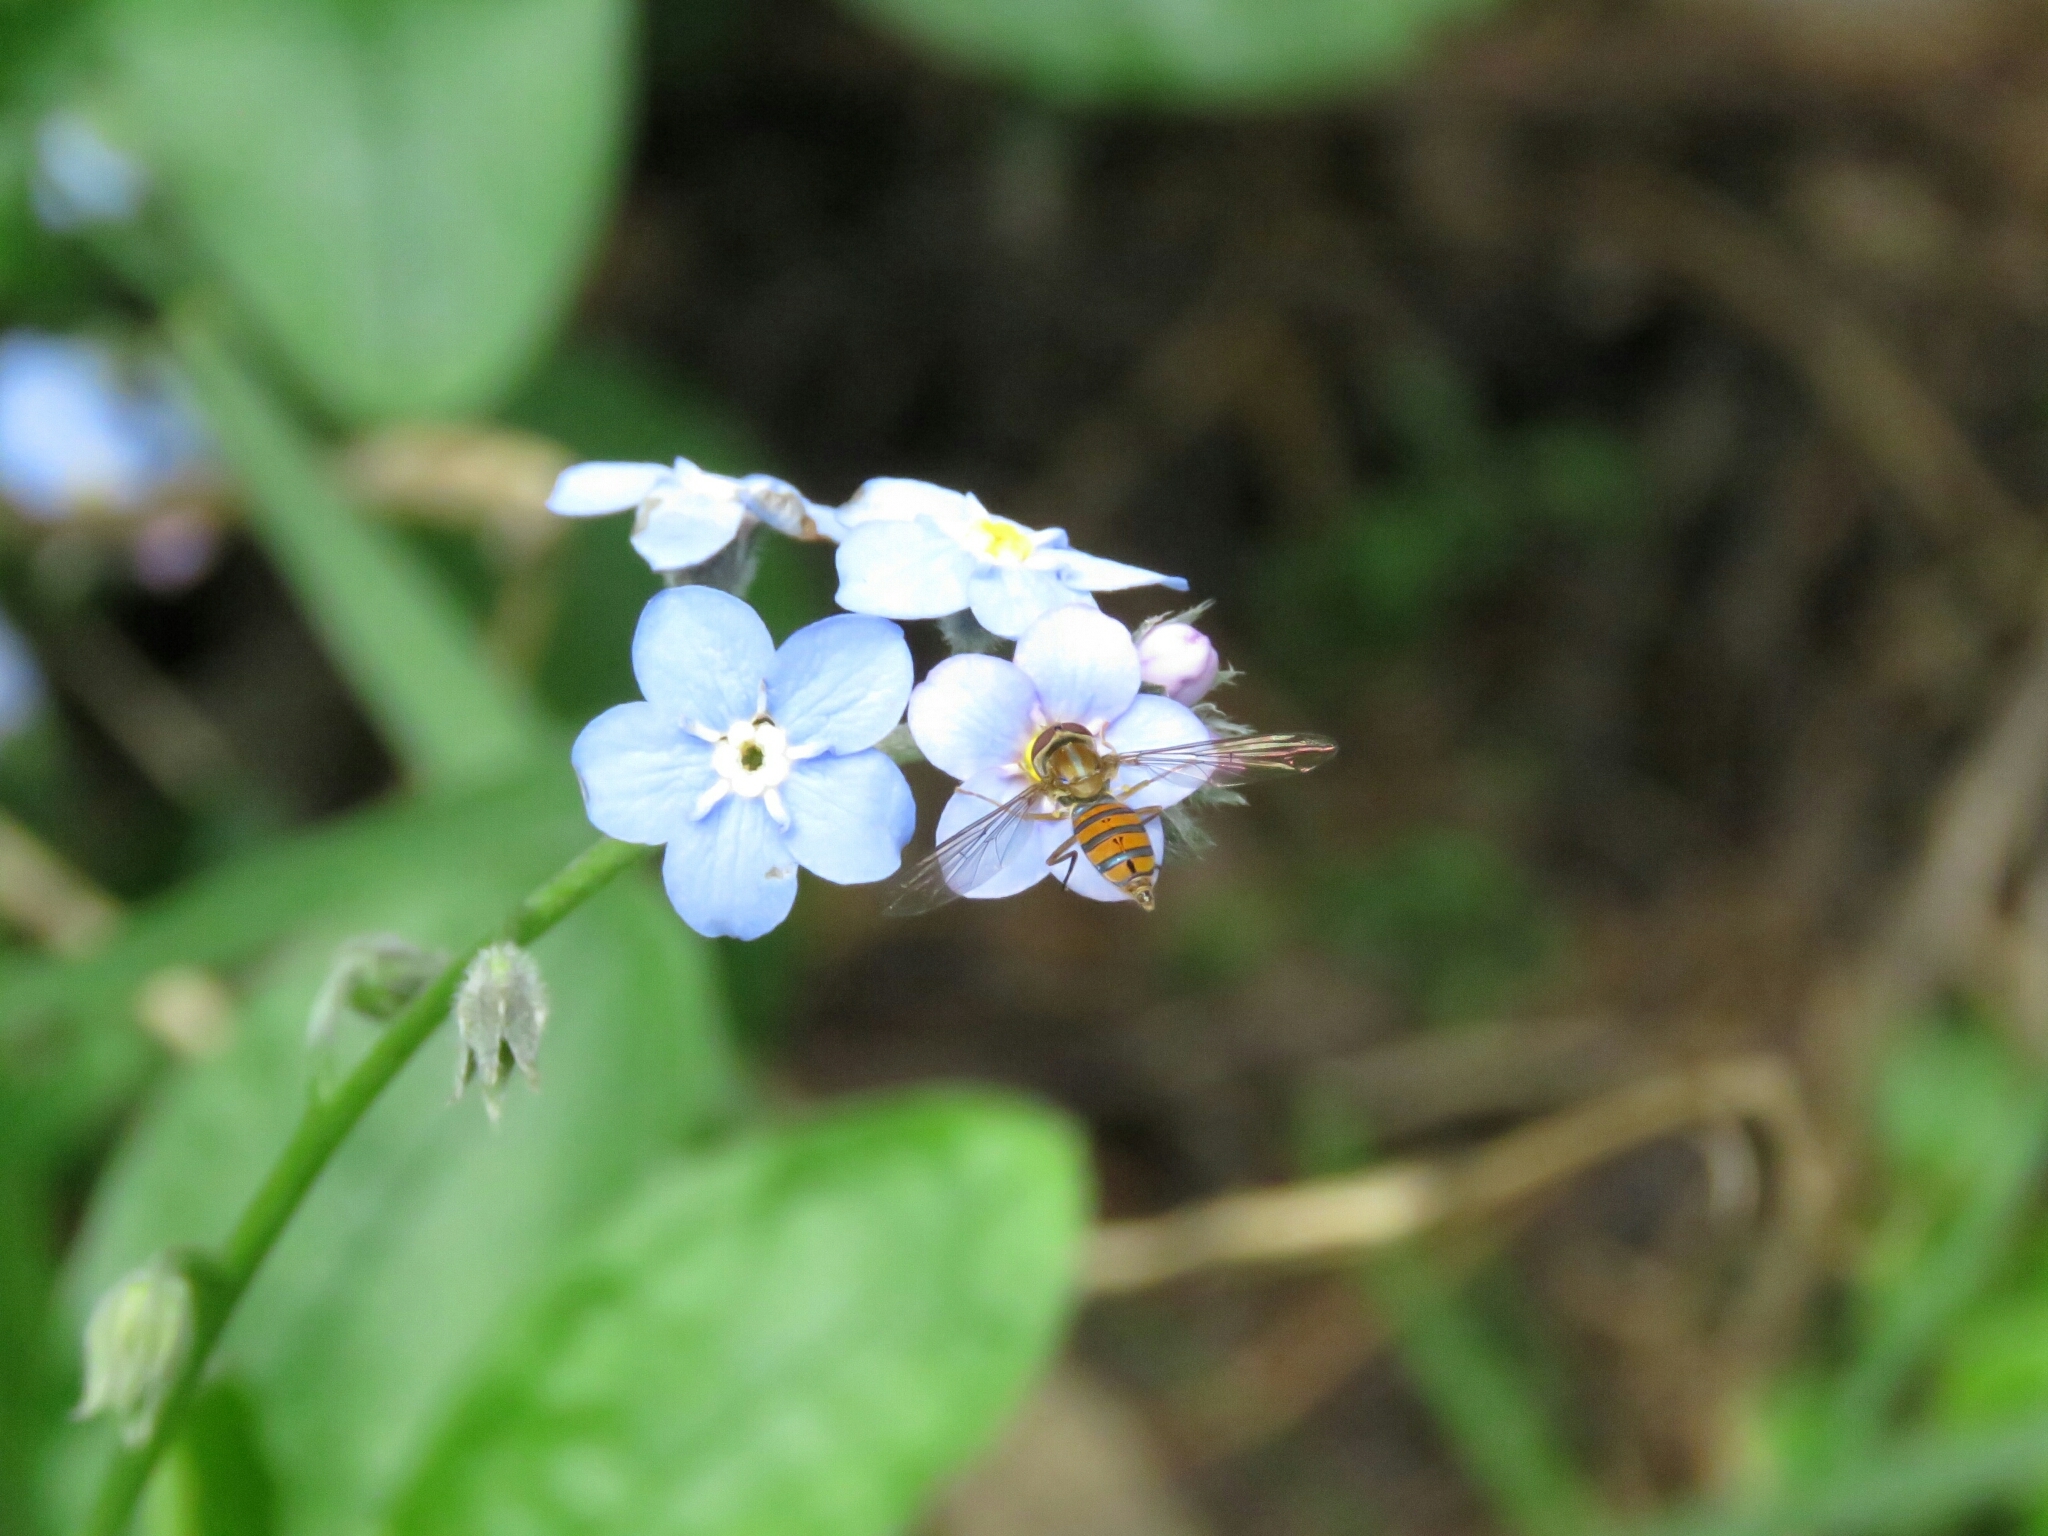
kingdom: Animalia
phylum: Arthropoda
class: Insecta
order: Diptera
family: Syrphidae
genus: Toxomerus
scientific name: Toxomerus
